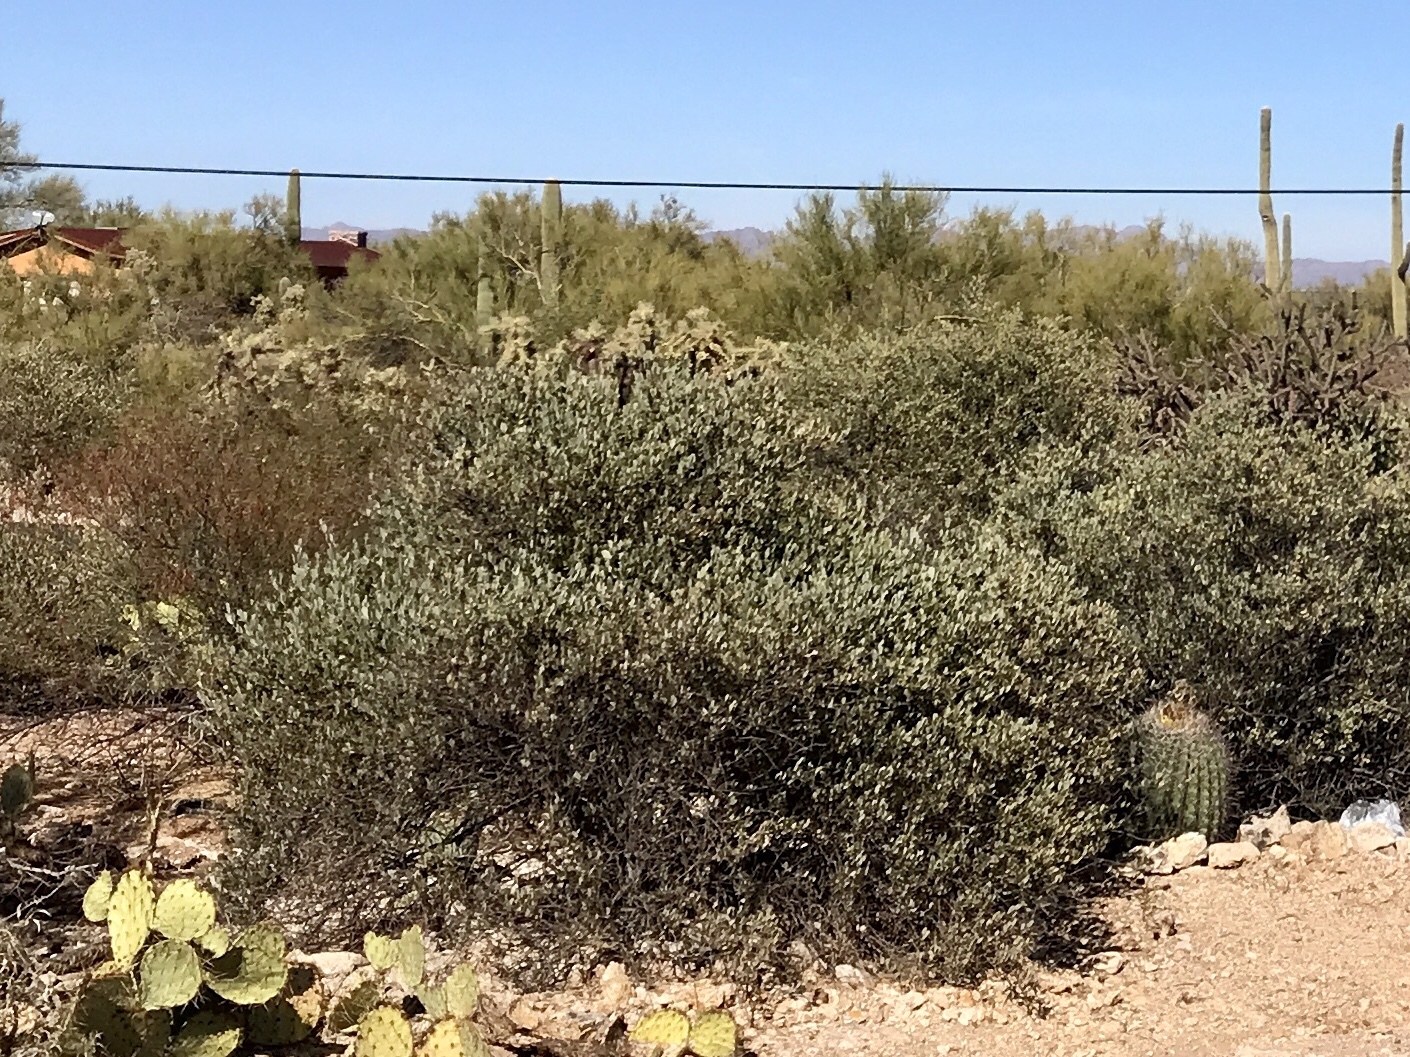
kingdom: Plantae
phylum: Tracheophyta
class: Magnoliopsida
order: Caryophyllales
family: Simmondsiaceae
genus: Simmondsia
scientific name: Simmondsia chinensis
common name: Jojoba
